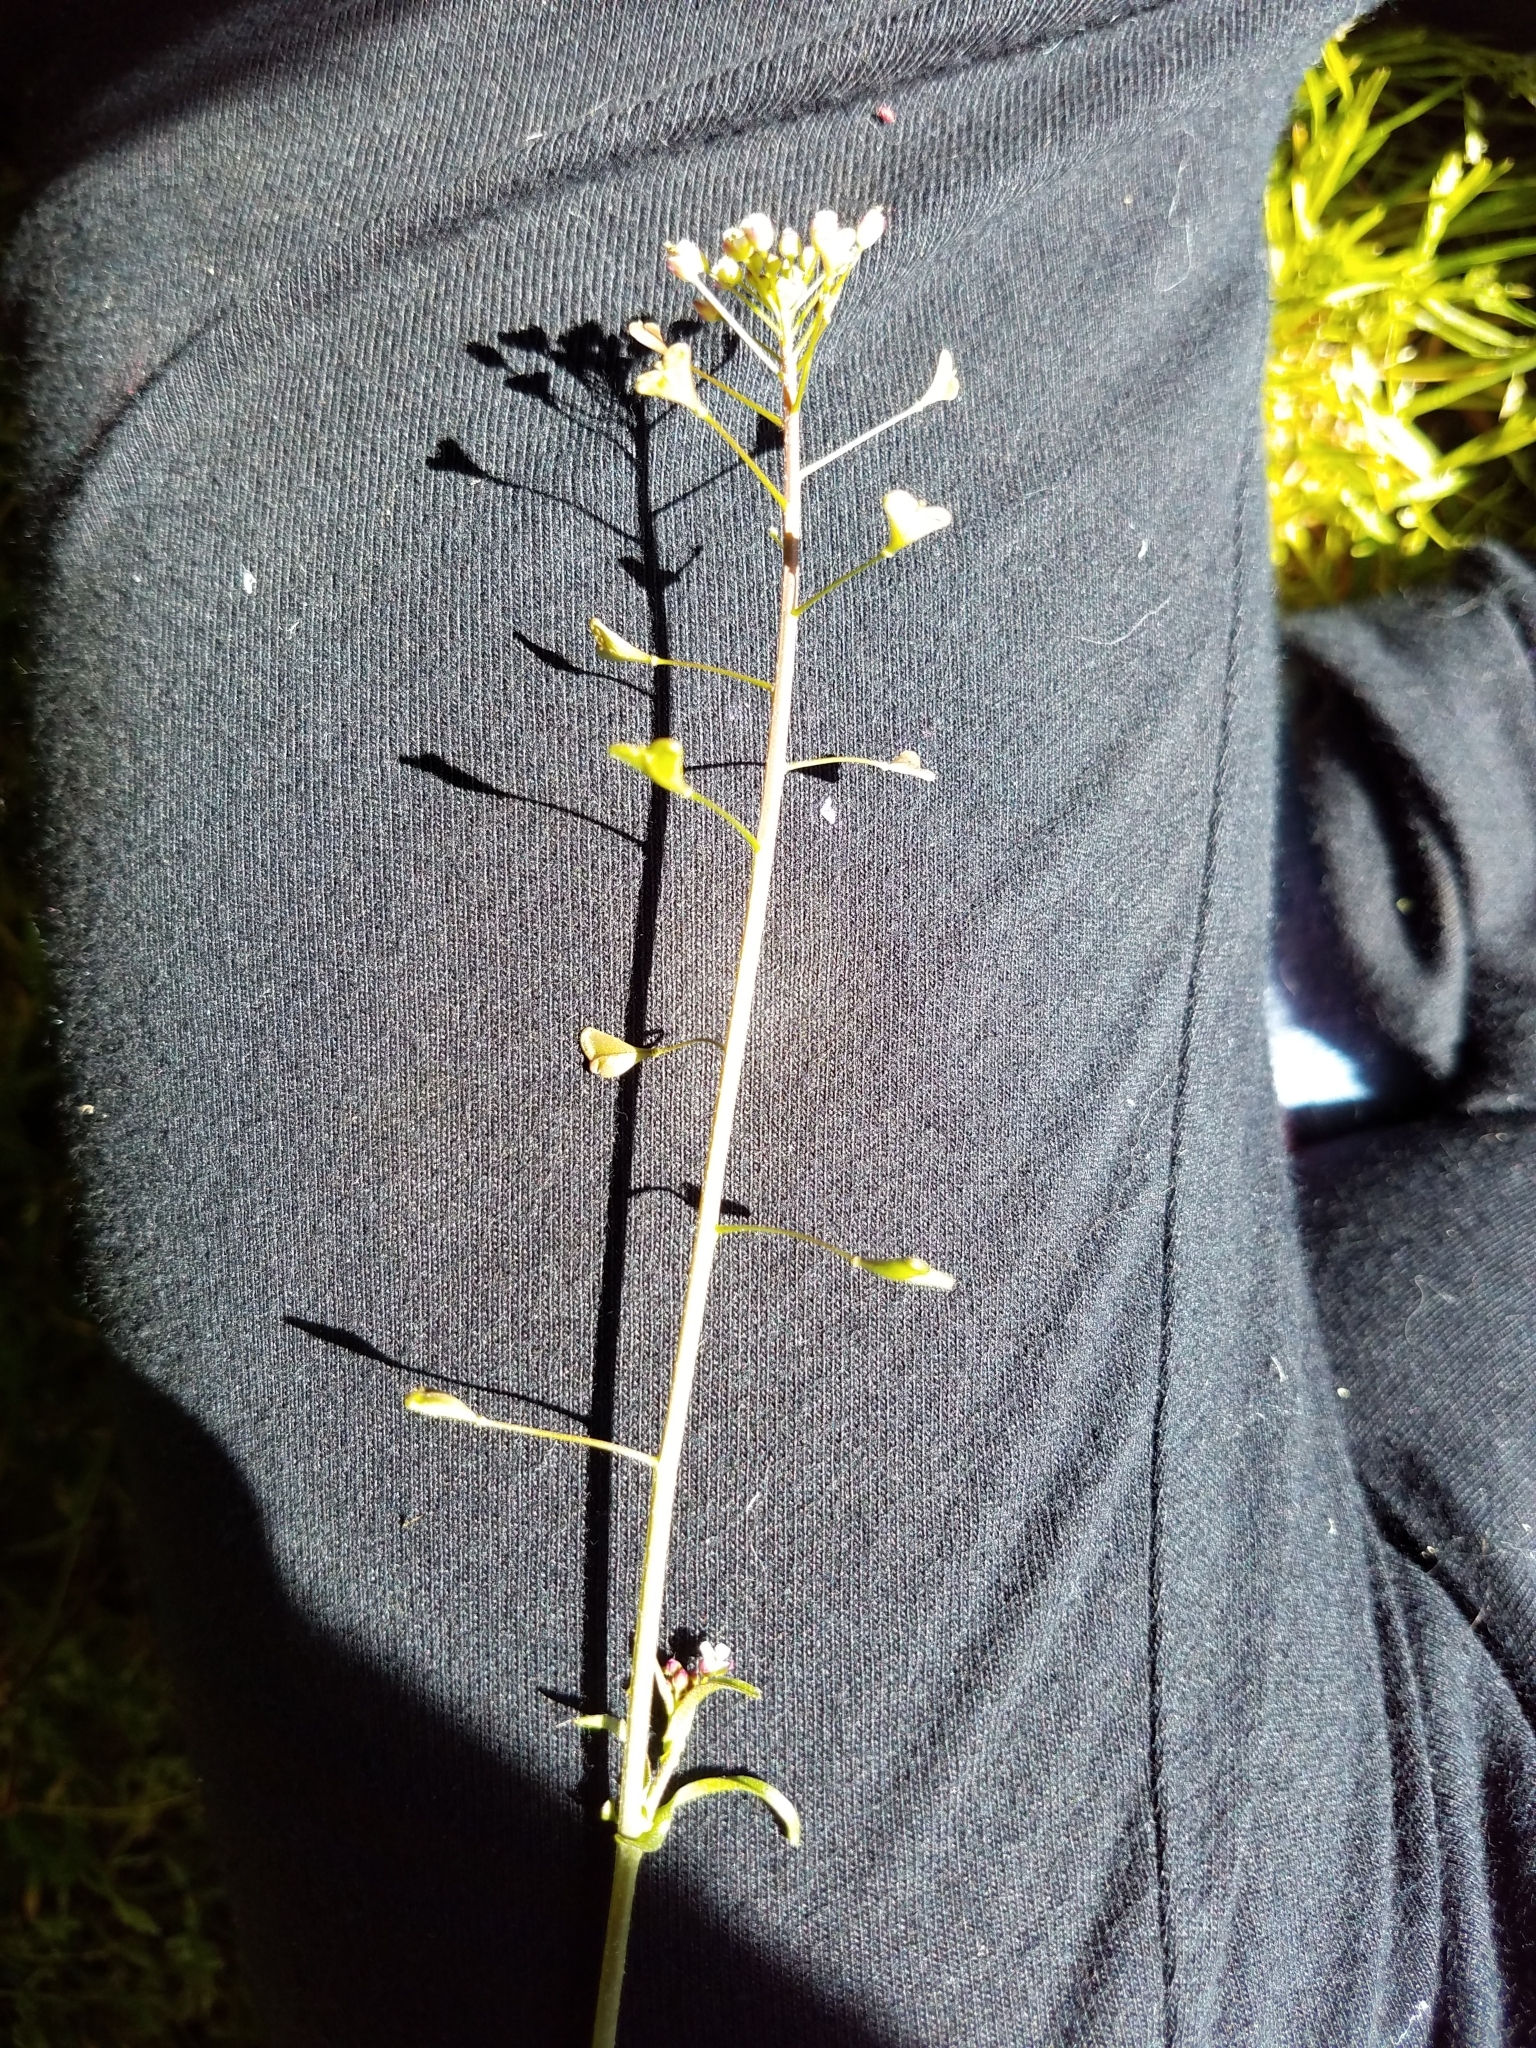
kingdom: Plantae
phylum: Tracheophyta
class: Magnoliopsida
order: Brassicales
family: Brassicaceae
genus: Capsella
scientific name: Capsella bursa-pastoris
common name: Shepherd's purse
